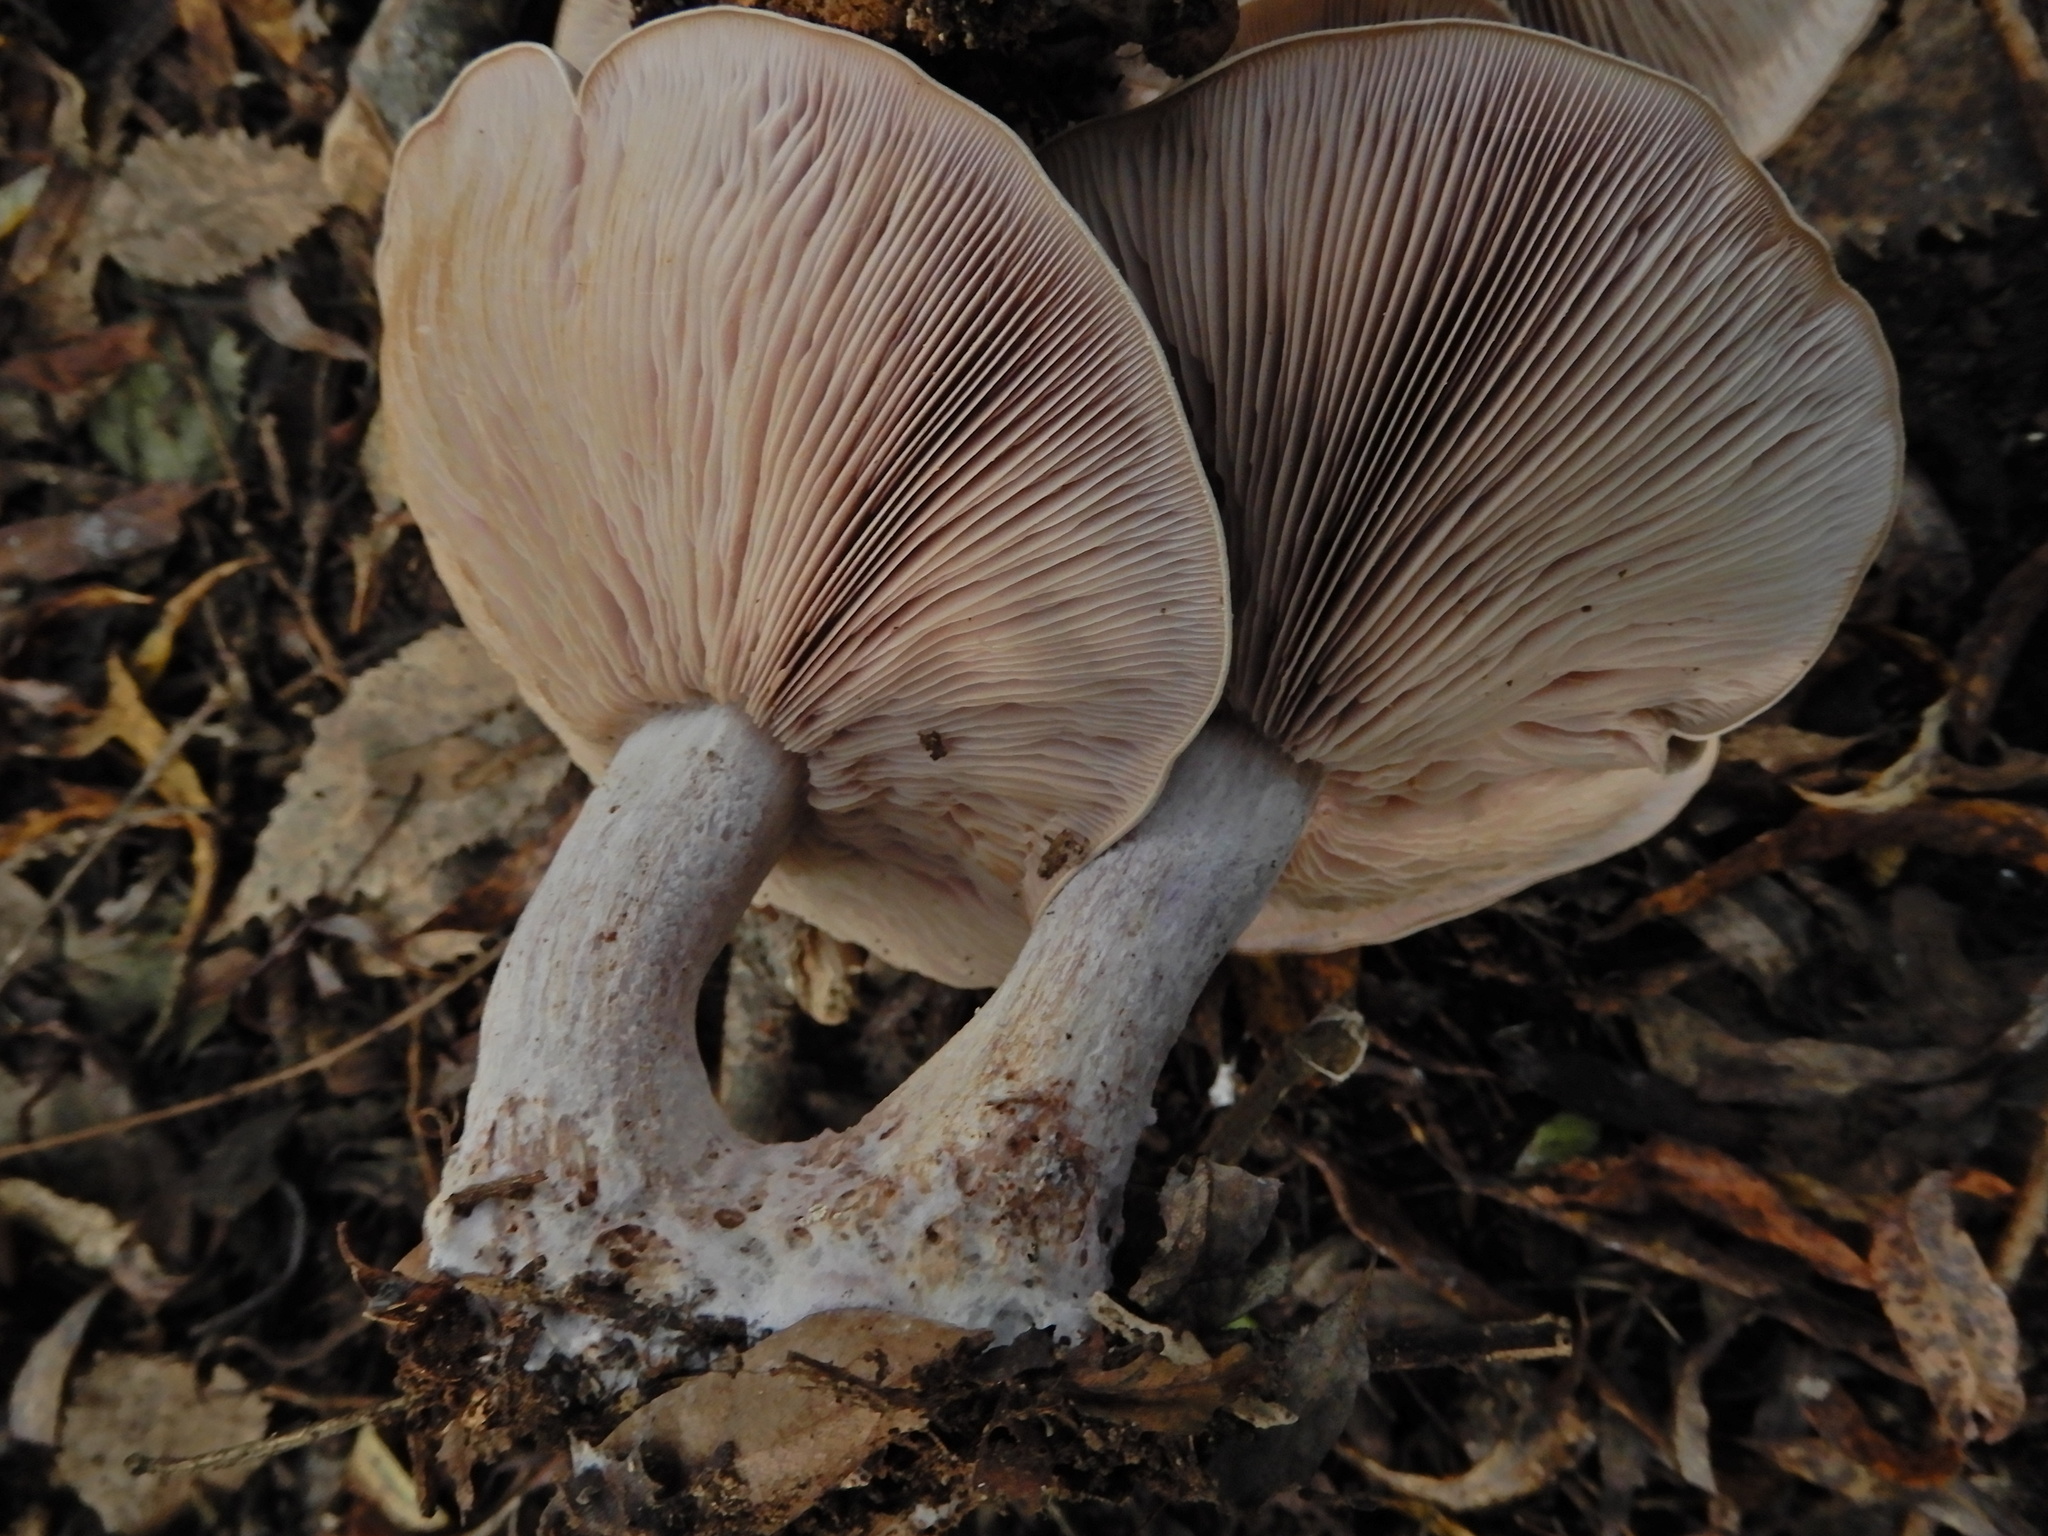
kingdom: Fungi
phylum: Basidiomycota
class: Agaricomycetes
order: Agaricales
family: Tricholomataceae
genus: Collybia
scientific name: Collybia
